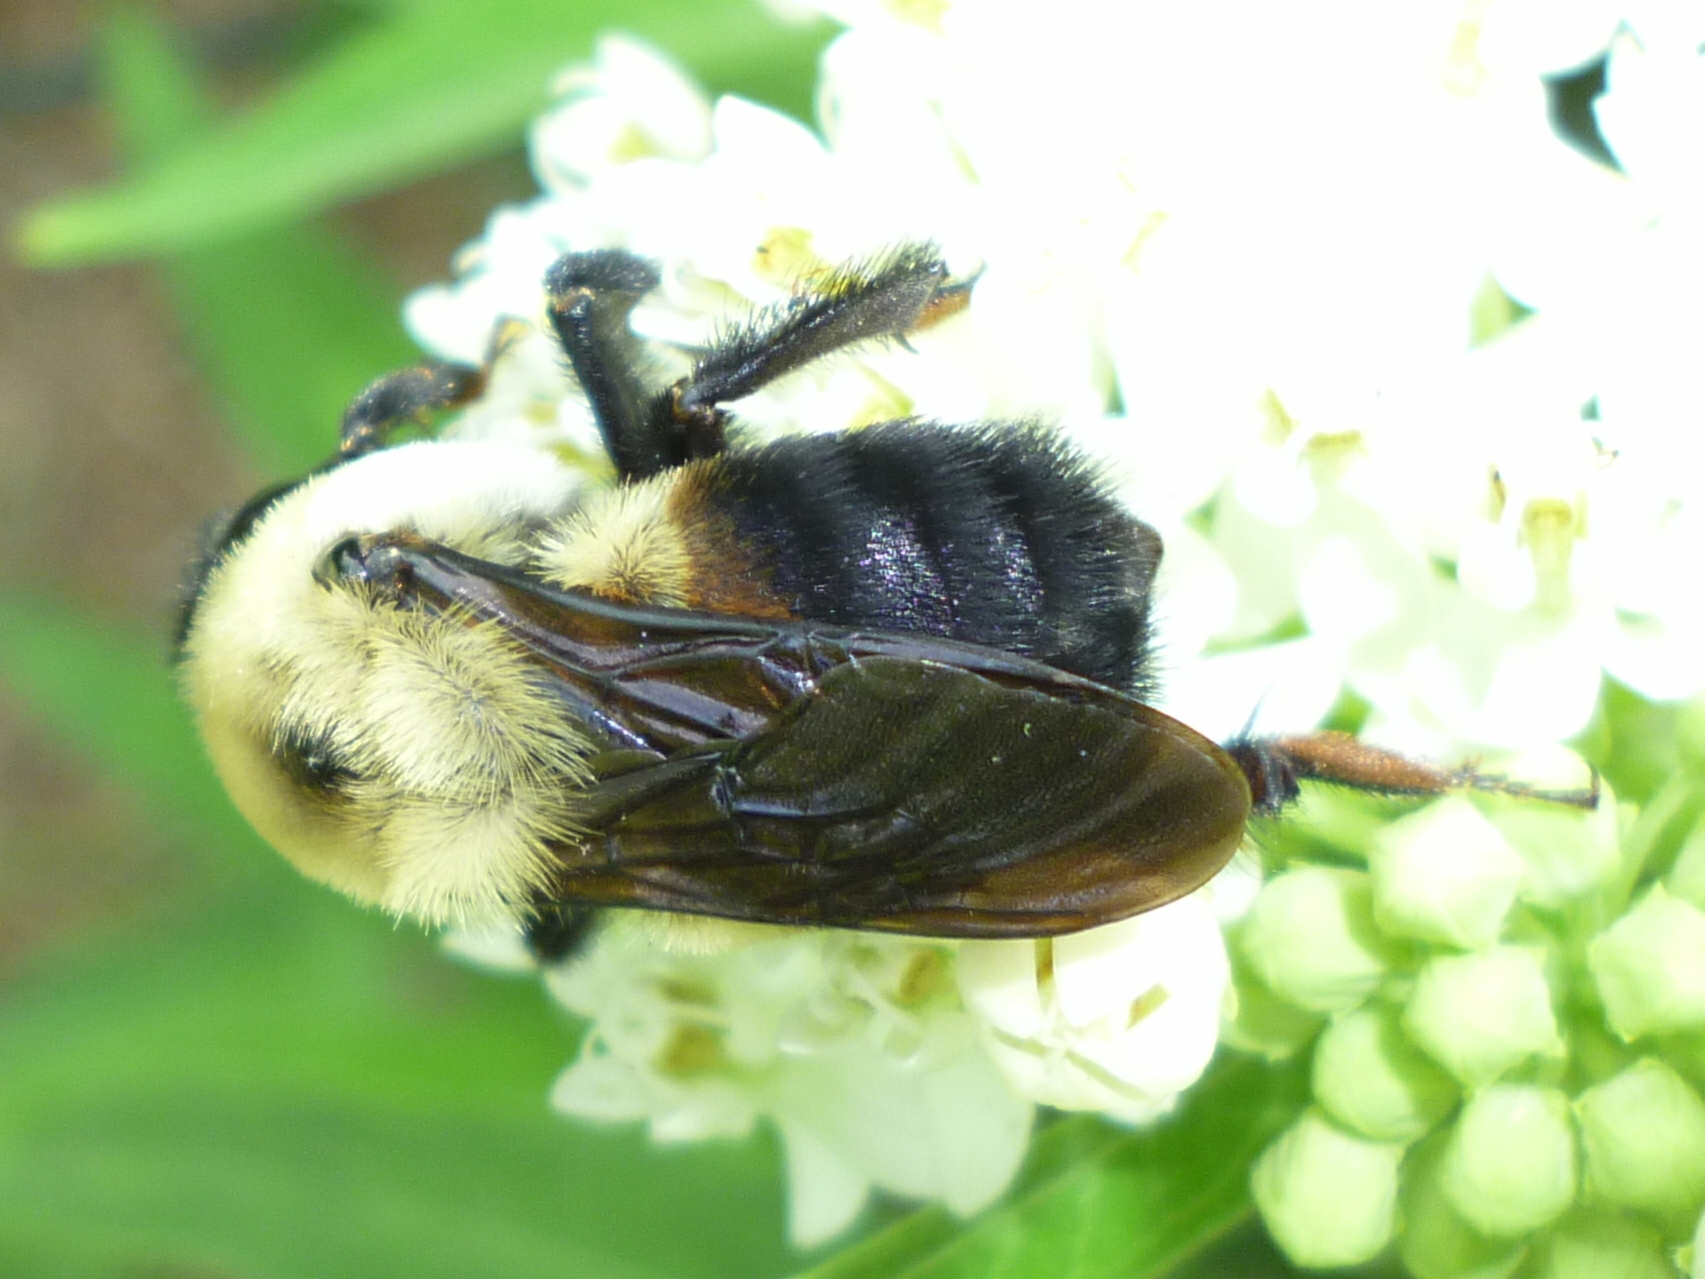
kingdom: Animalia
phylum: Arthropoda
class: Insecta
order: Hymenoptera
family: Apidae
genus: Bombus
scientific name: Bombus griseocollis
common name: Brown-belted bumble bee
